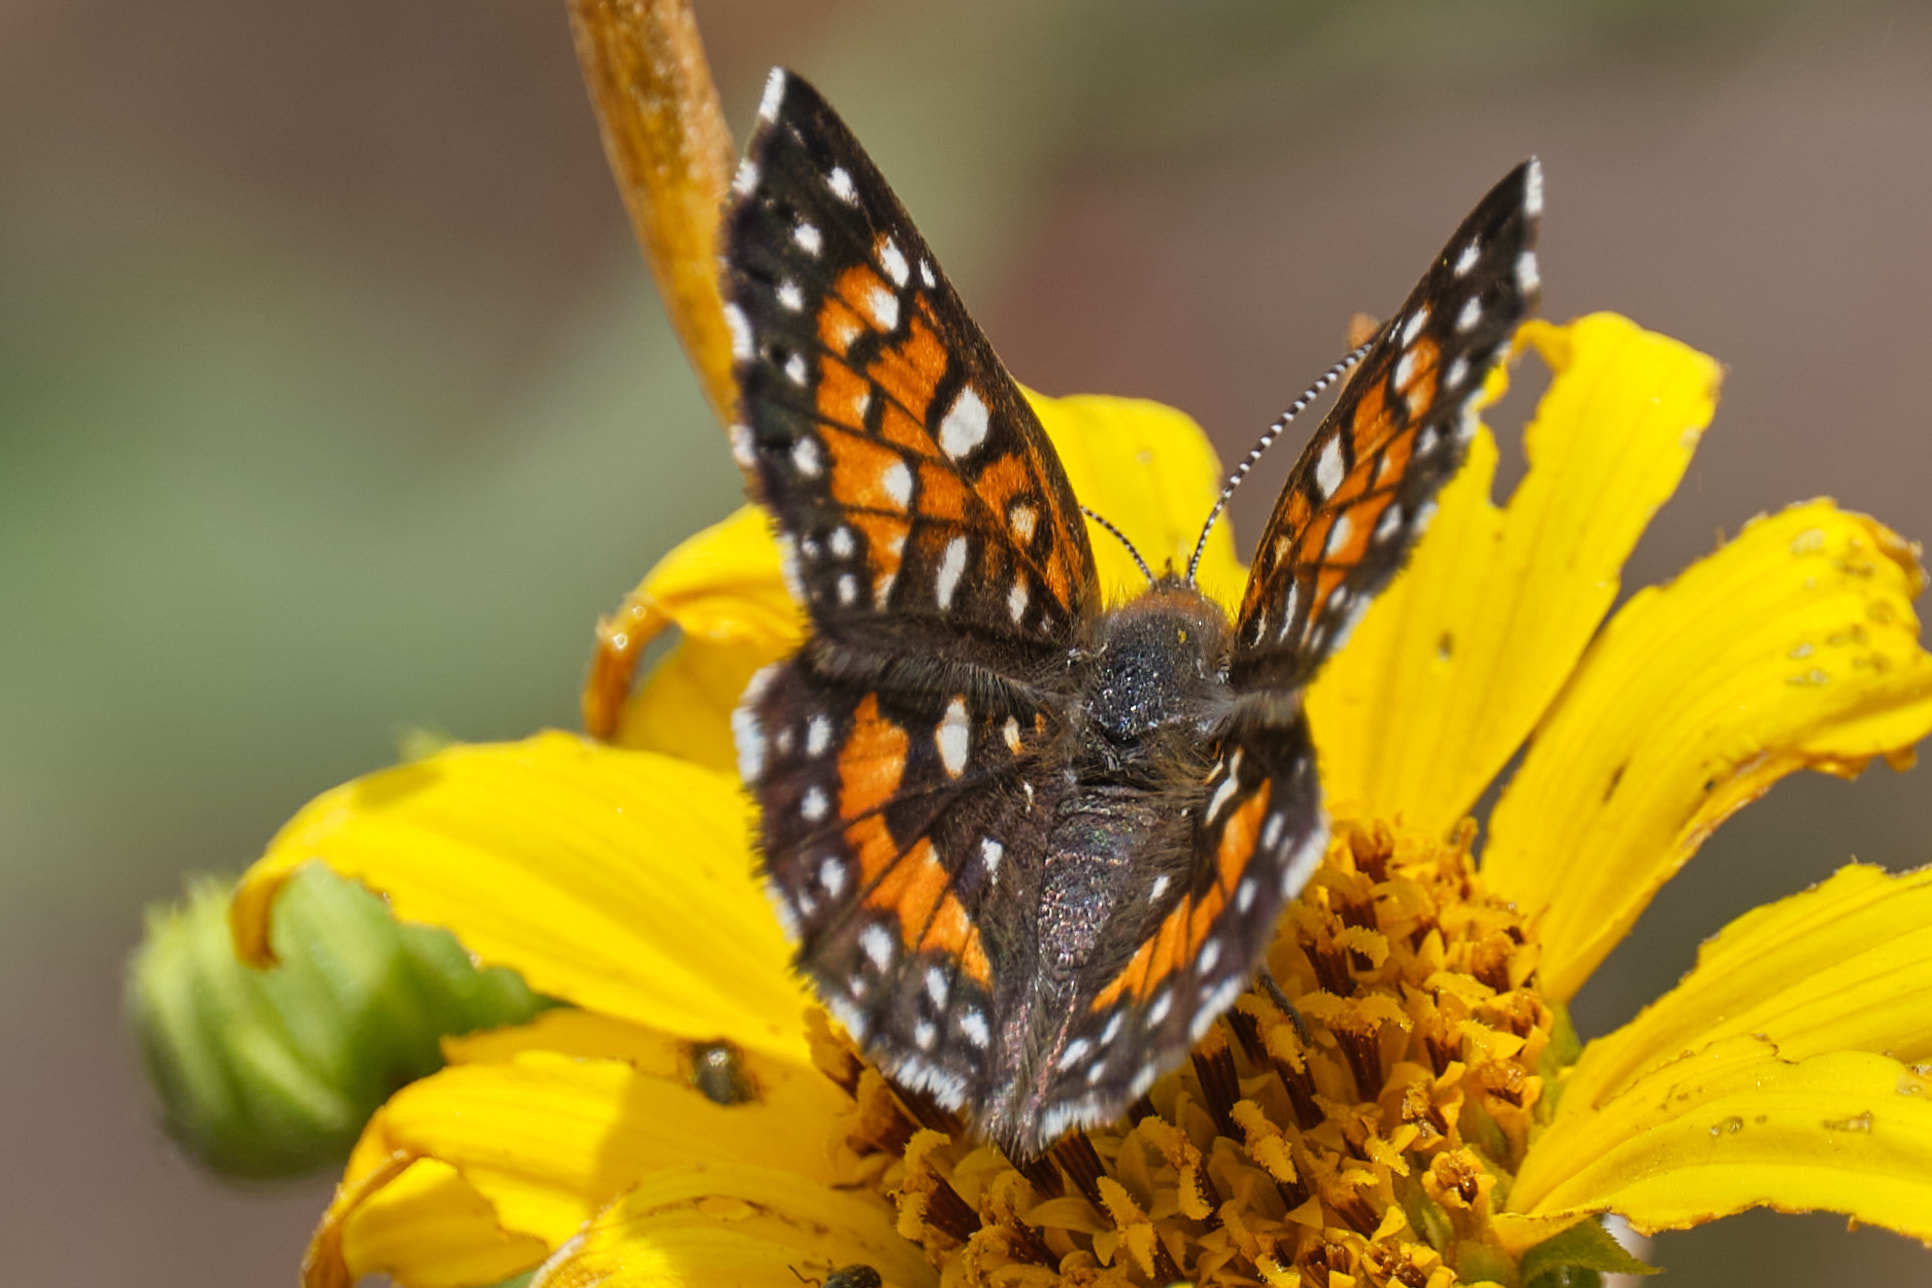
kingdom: Animalia
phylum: Arthropoda
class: Insecta
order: Lepidoptera
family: Riodinidae
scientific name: Riodinidae
